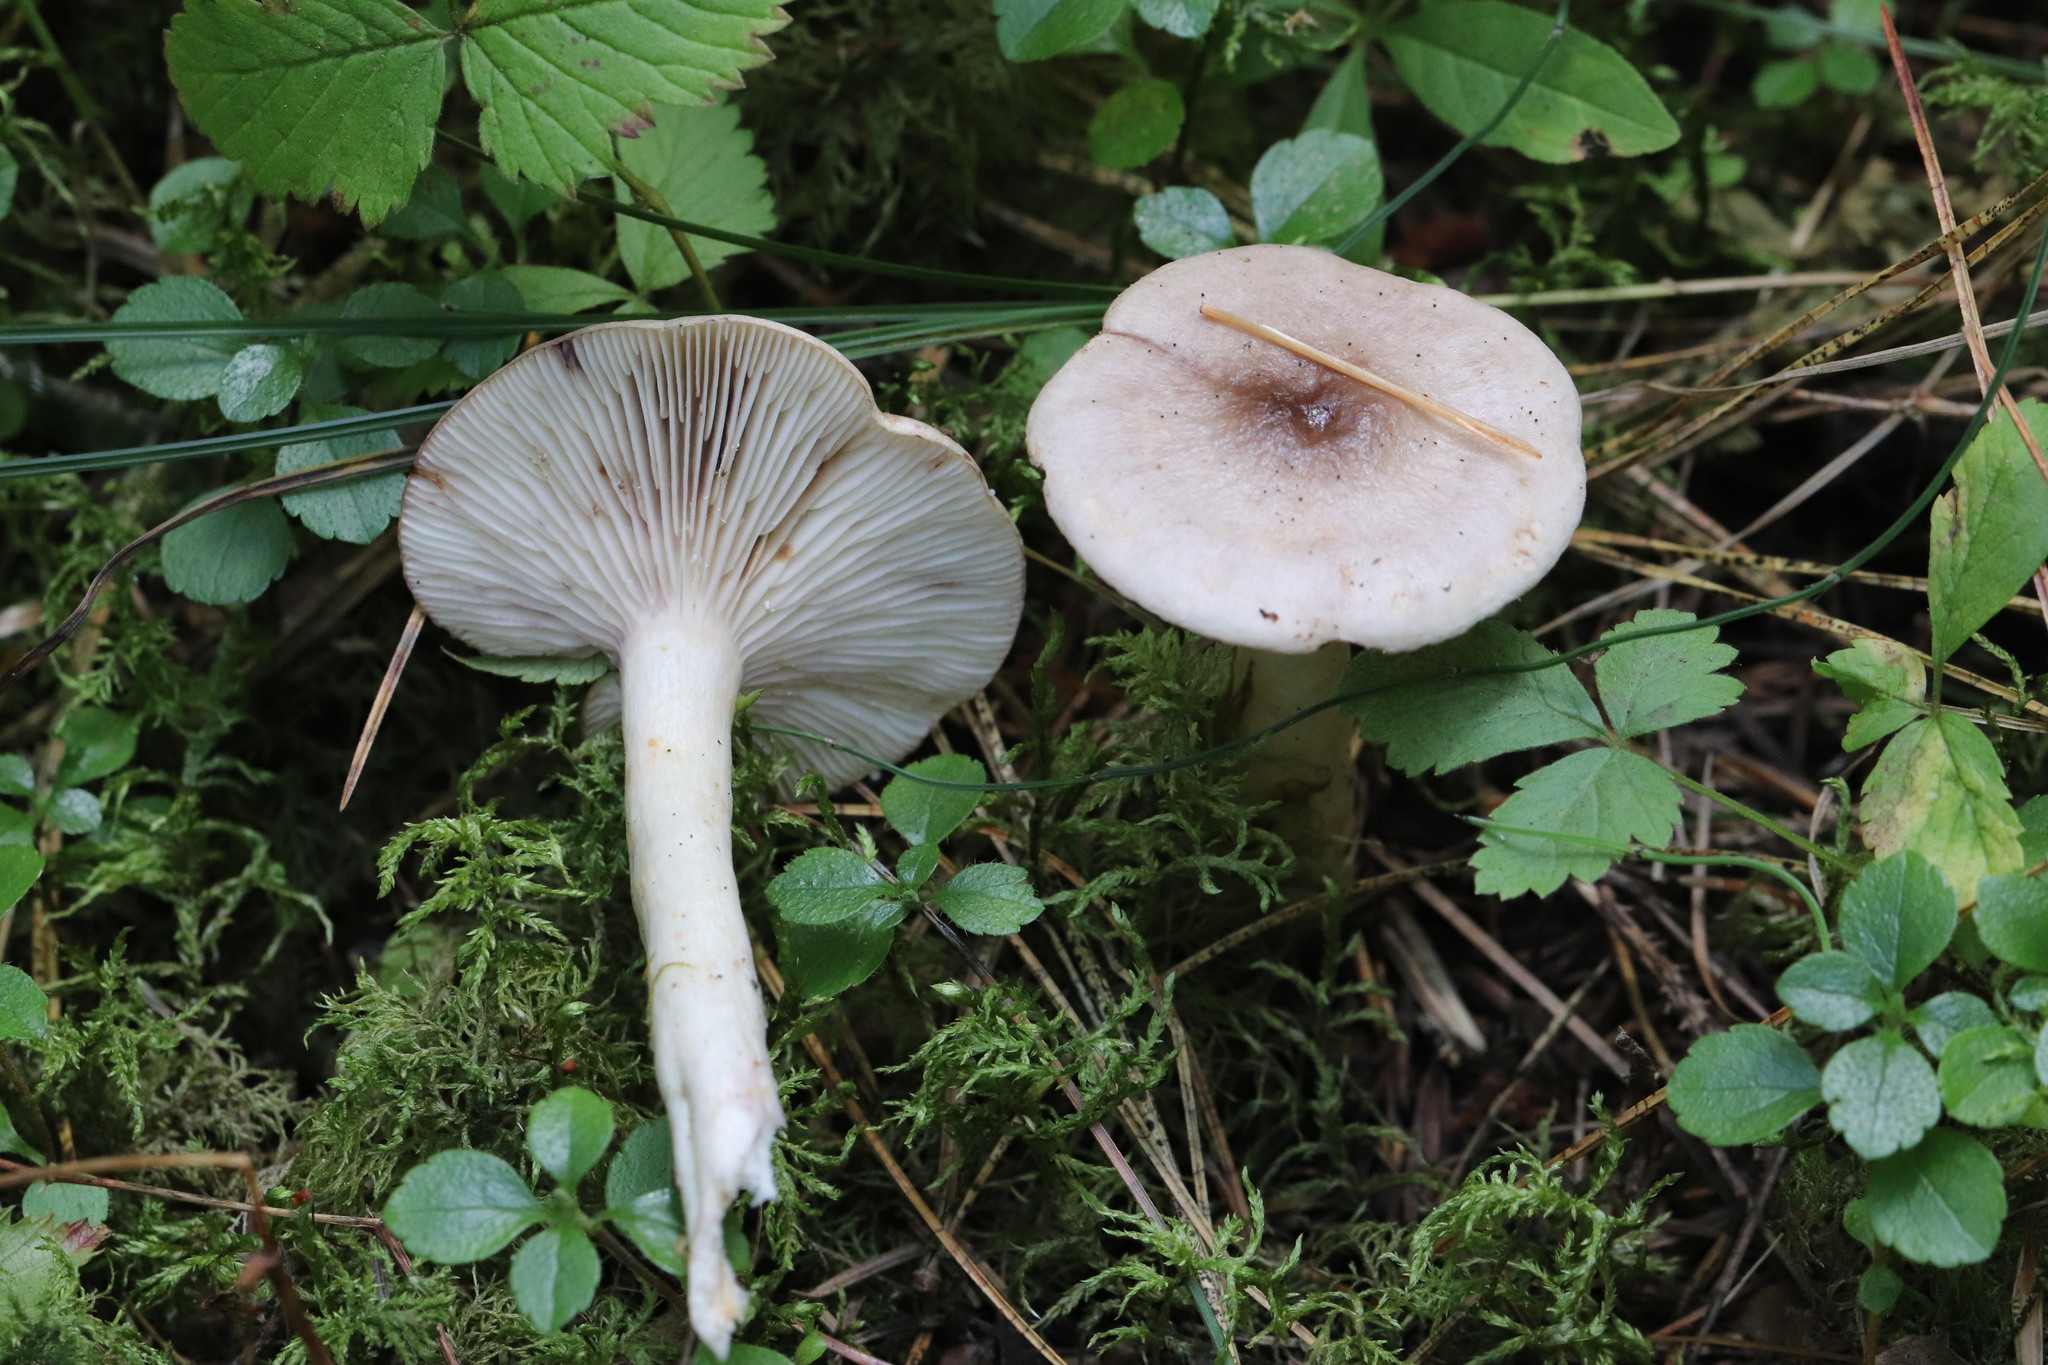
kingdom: Fungi
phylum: Basidiomycota
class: Agaricomycetes
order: Russulales
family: Russulaceae
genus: Lactarius
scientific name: Lactarius uvidus
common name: Shiner milkcap
